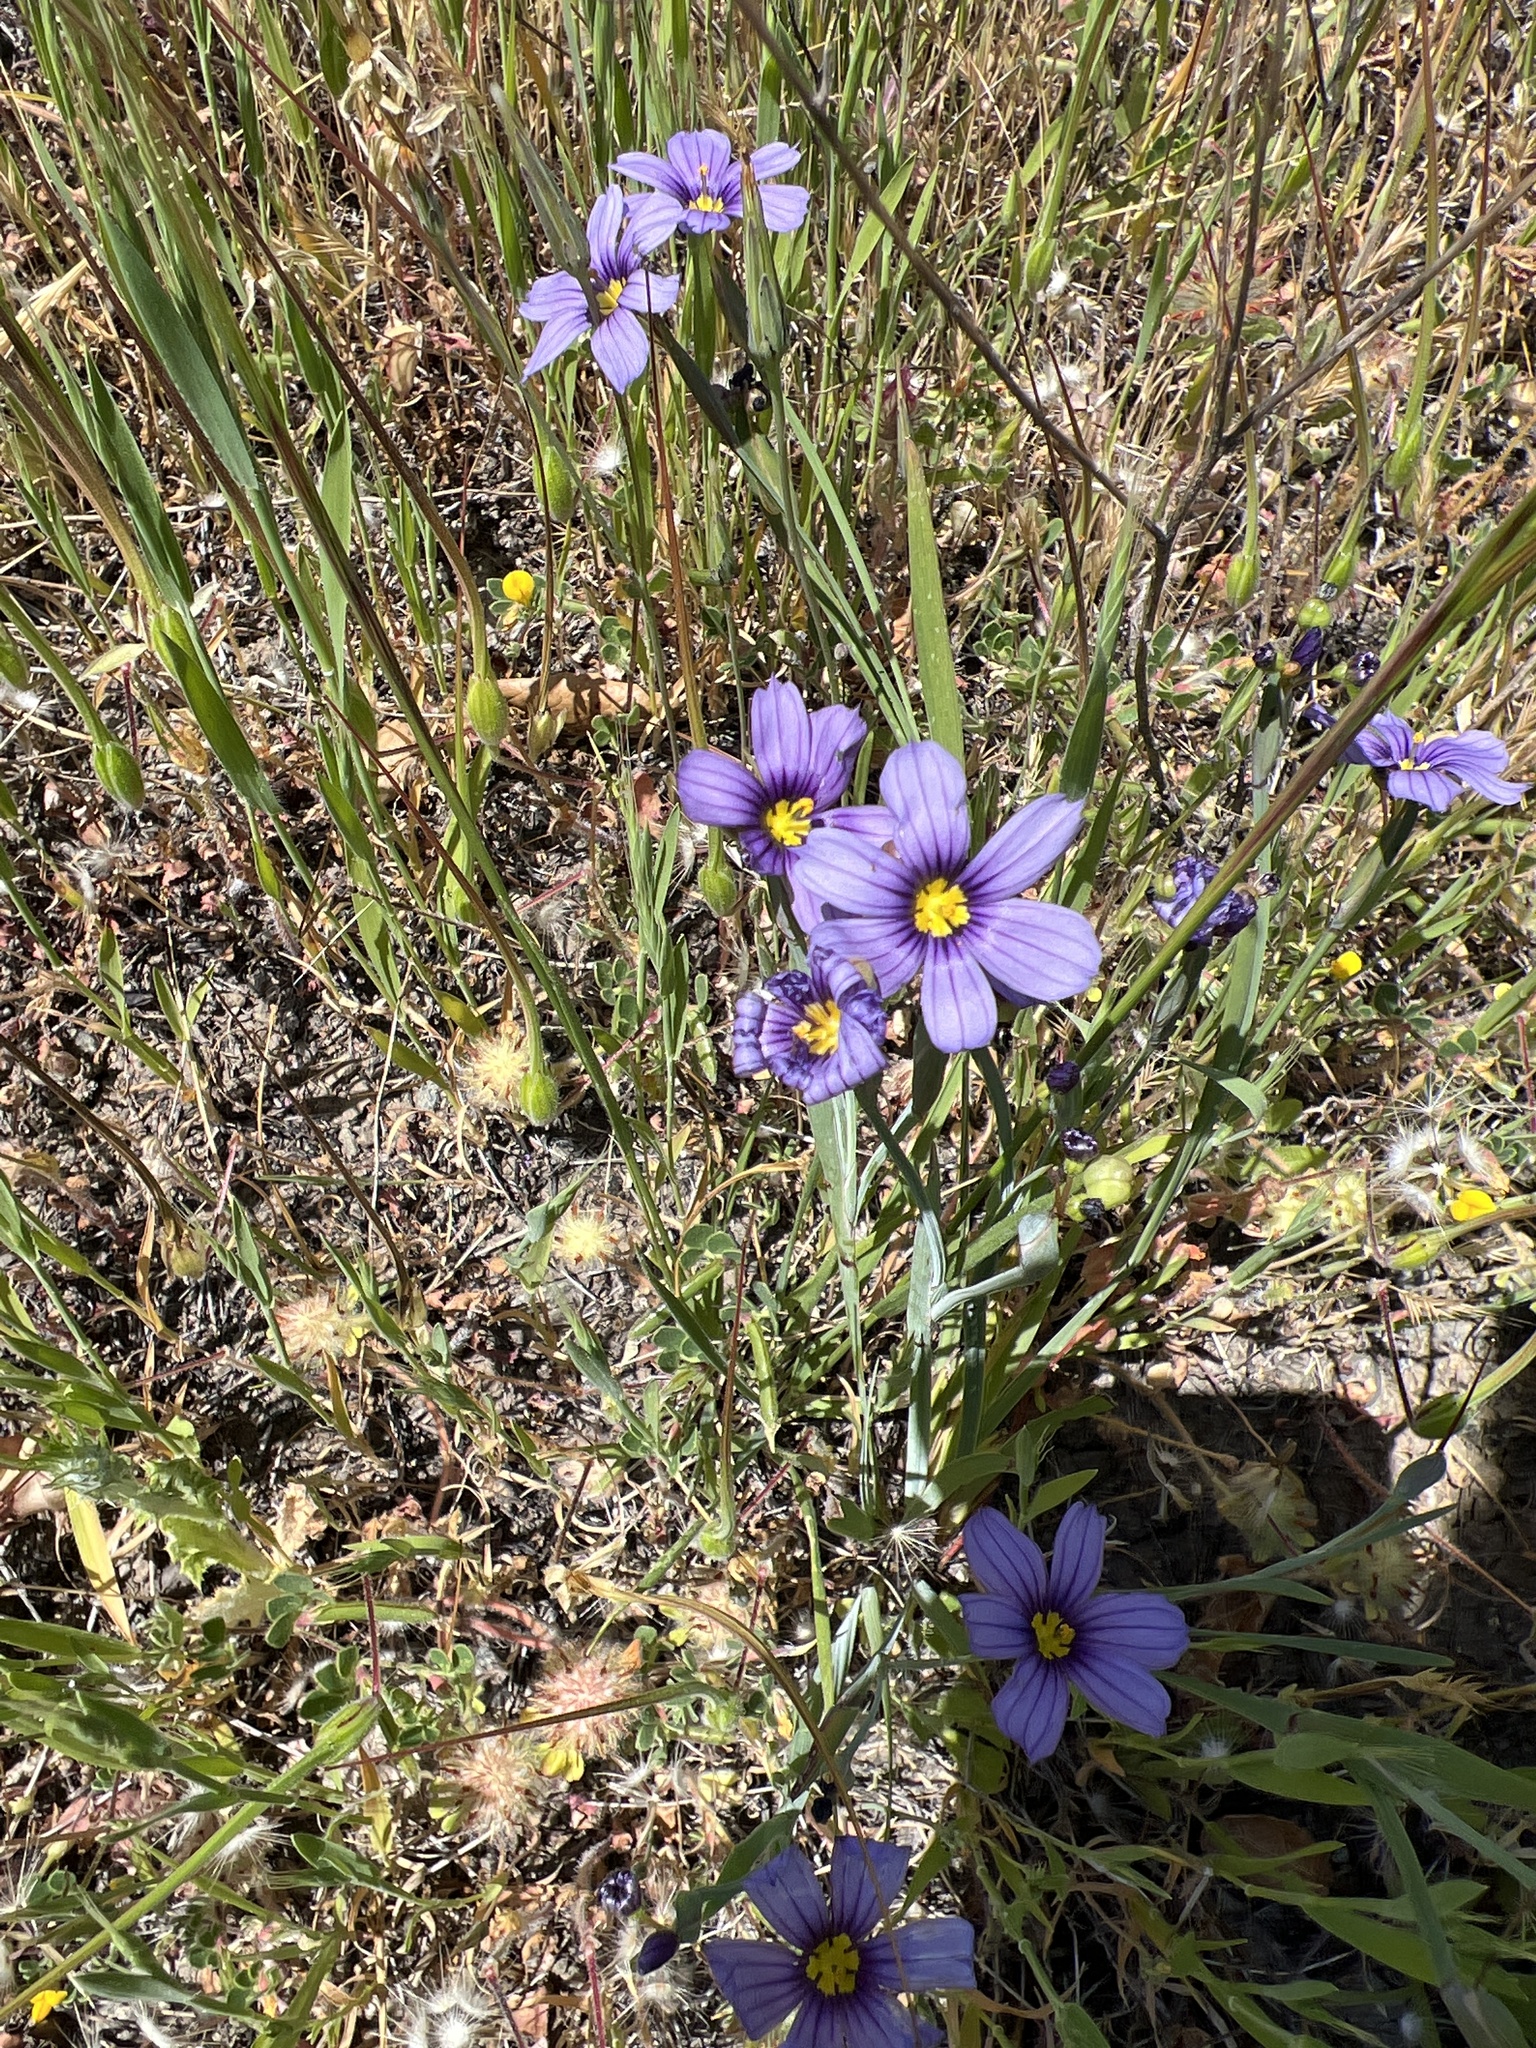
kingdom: Plantae
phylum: Tracheophyta
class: Liliopsida
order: Asparagales
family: Iridaceae
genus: Sisyrinchium
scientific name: Sisyrinchium bellum
